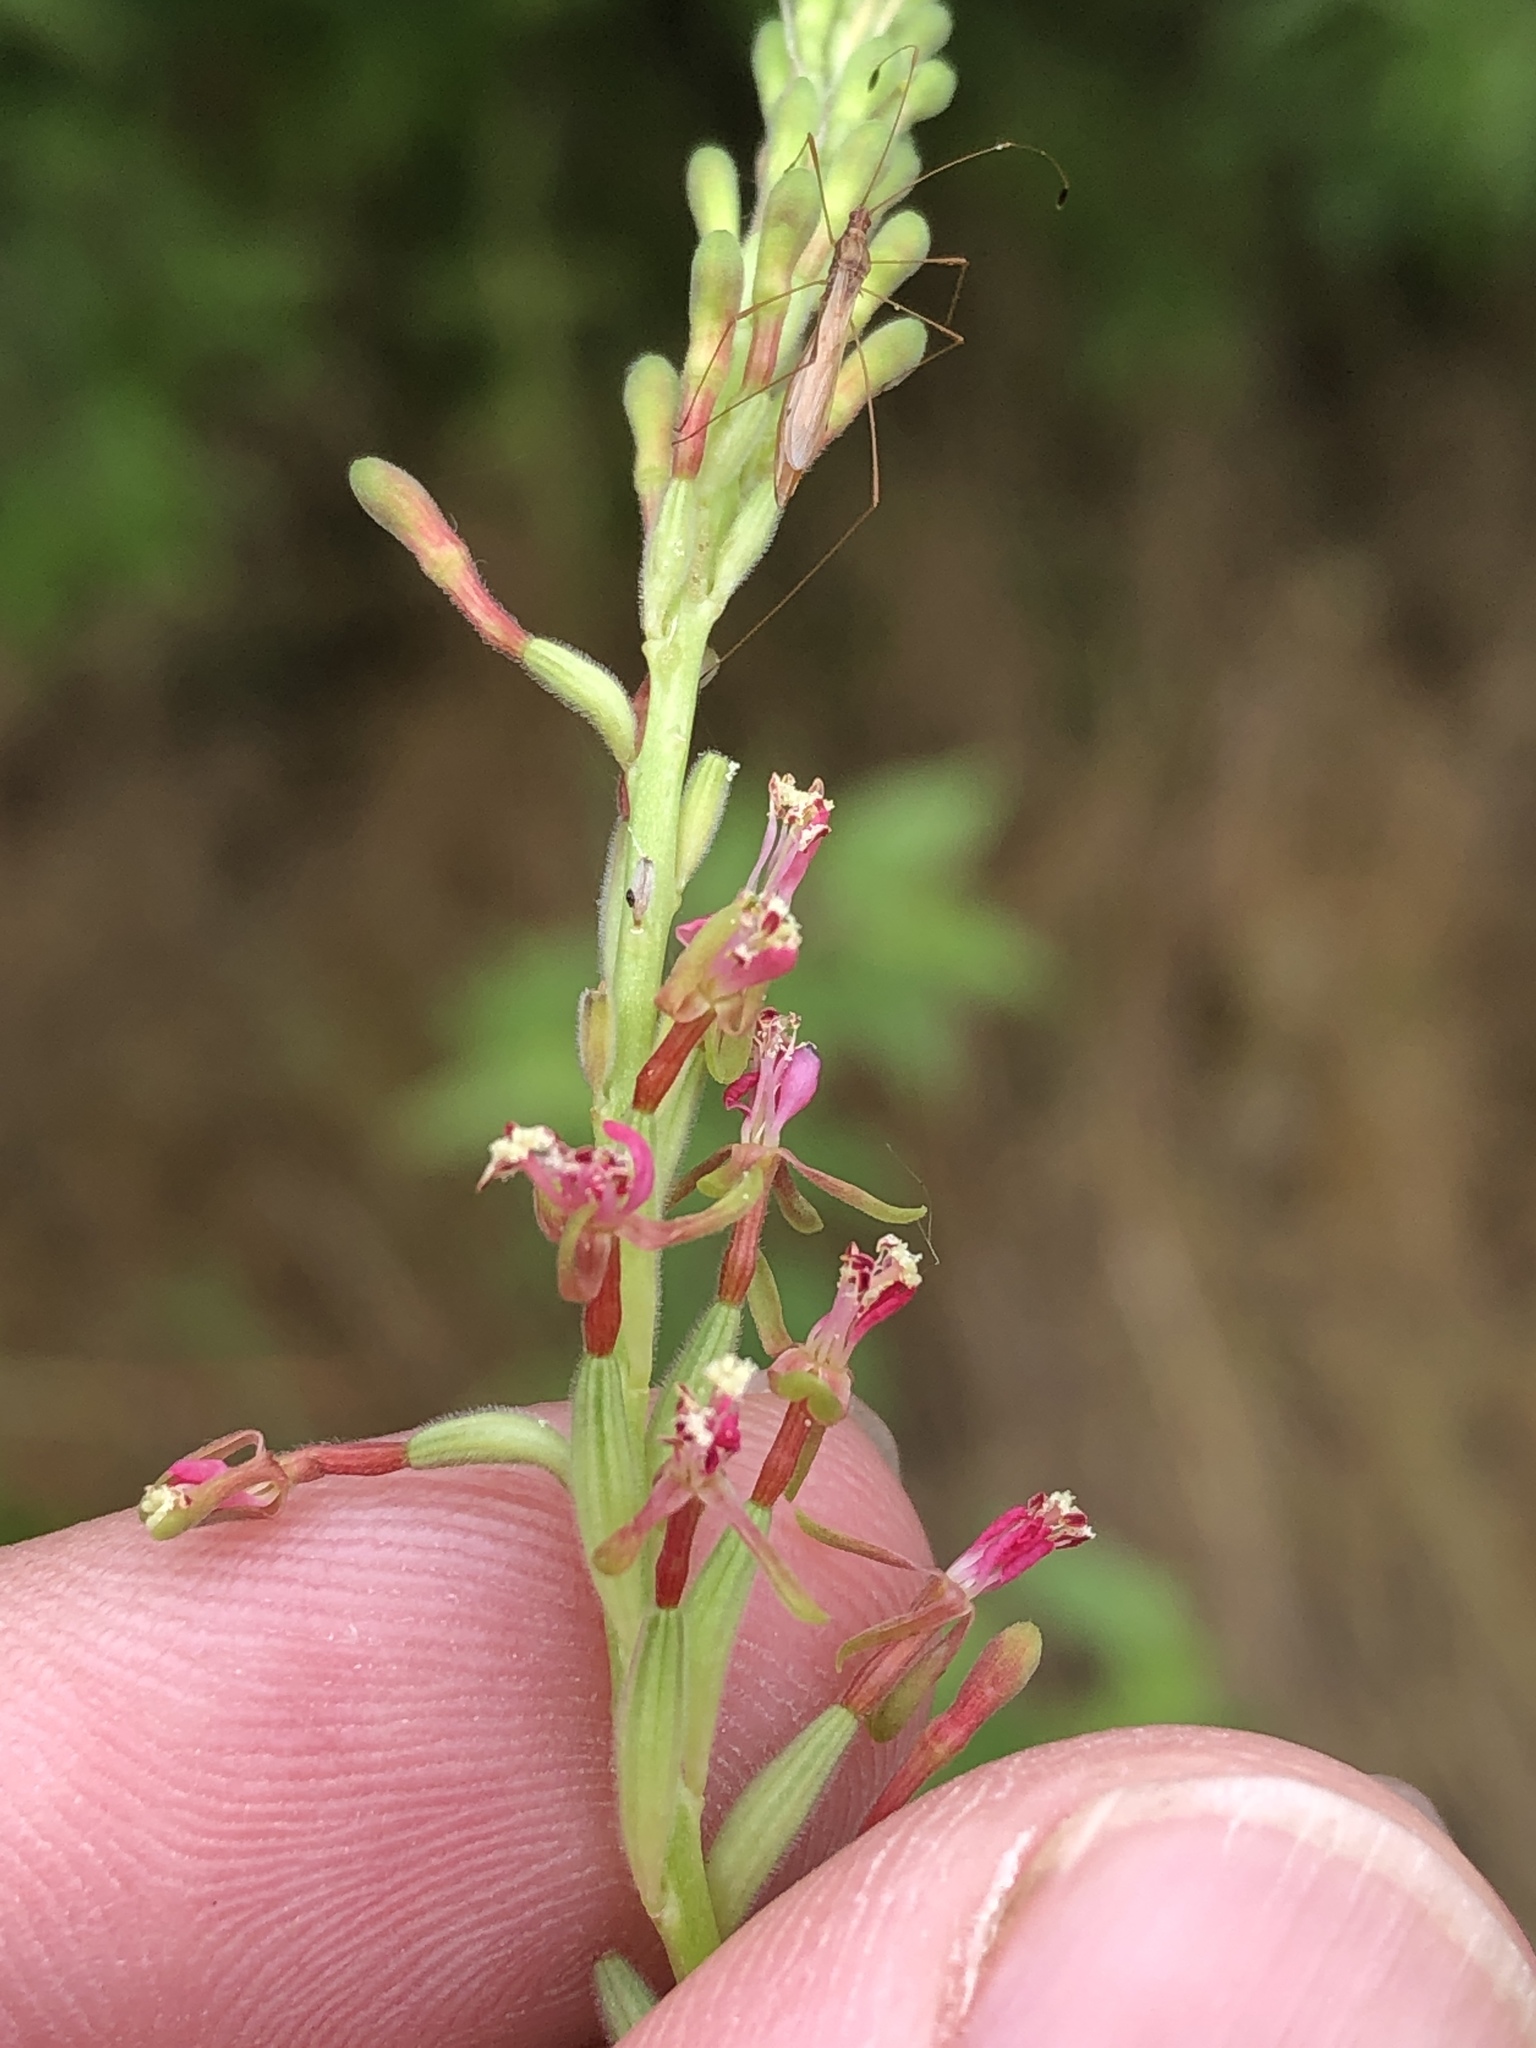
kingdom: Plantae
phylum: Tracheophyta
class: Magnoliopsida
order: Myrtales
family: Onagraceae
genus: Oenothera
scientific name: Oenothera curtiflora
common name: Velvetweed
